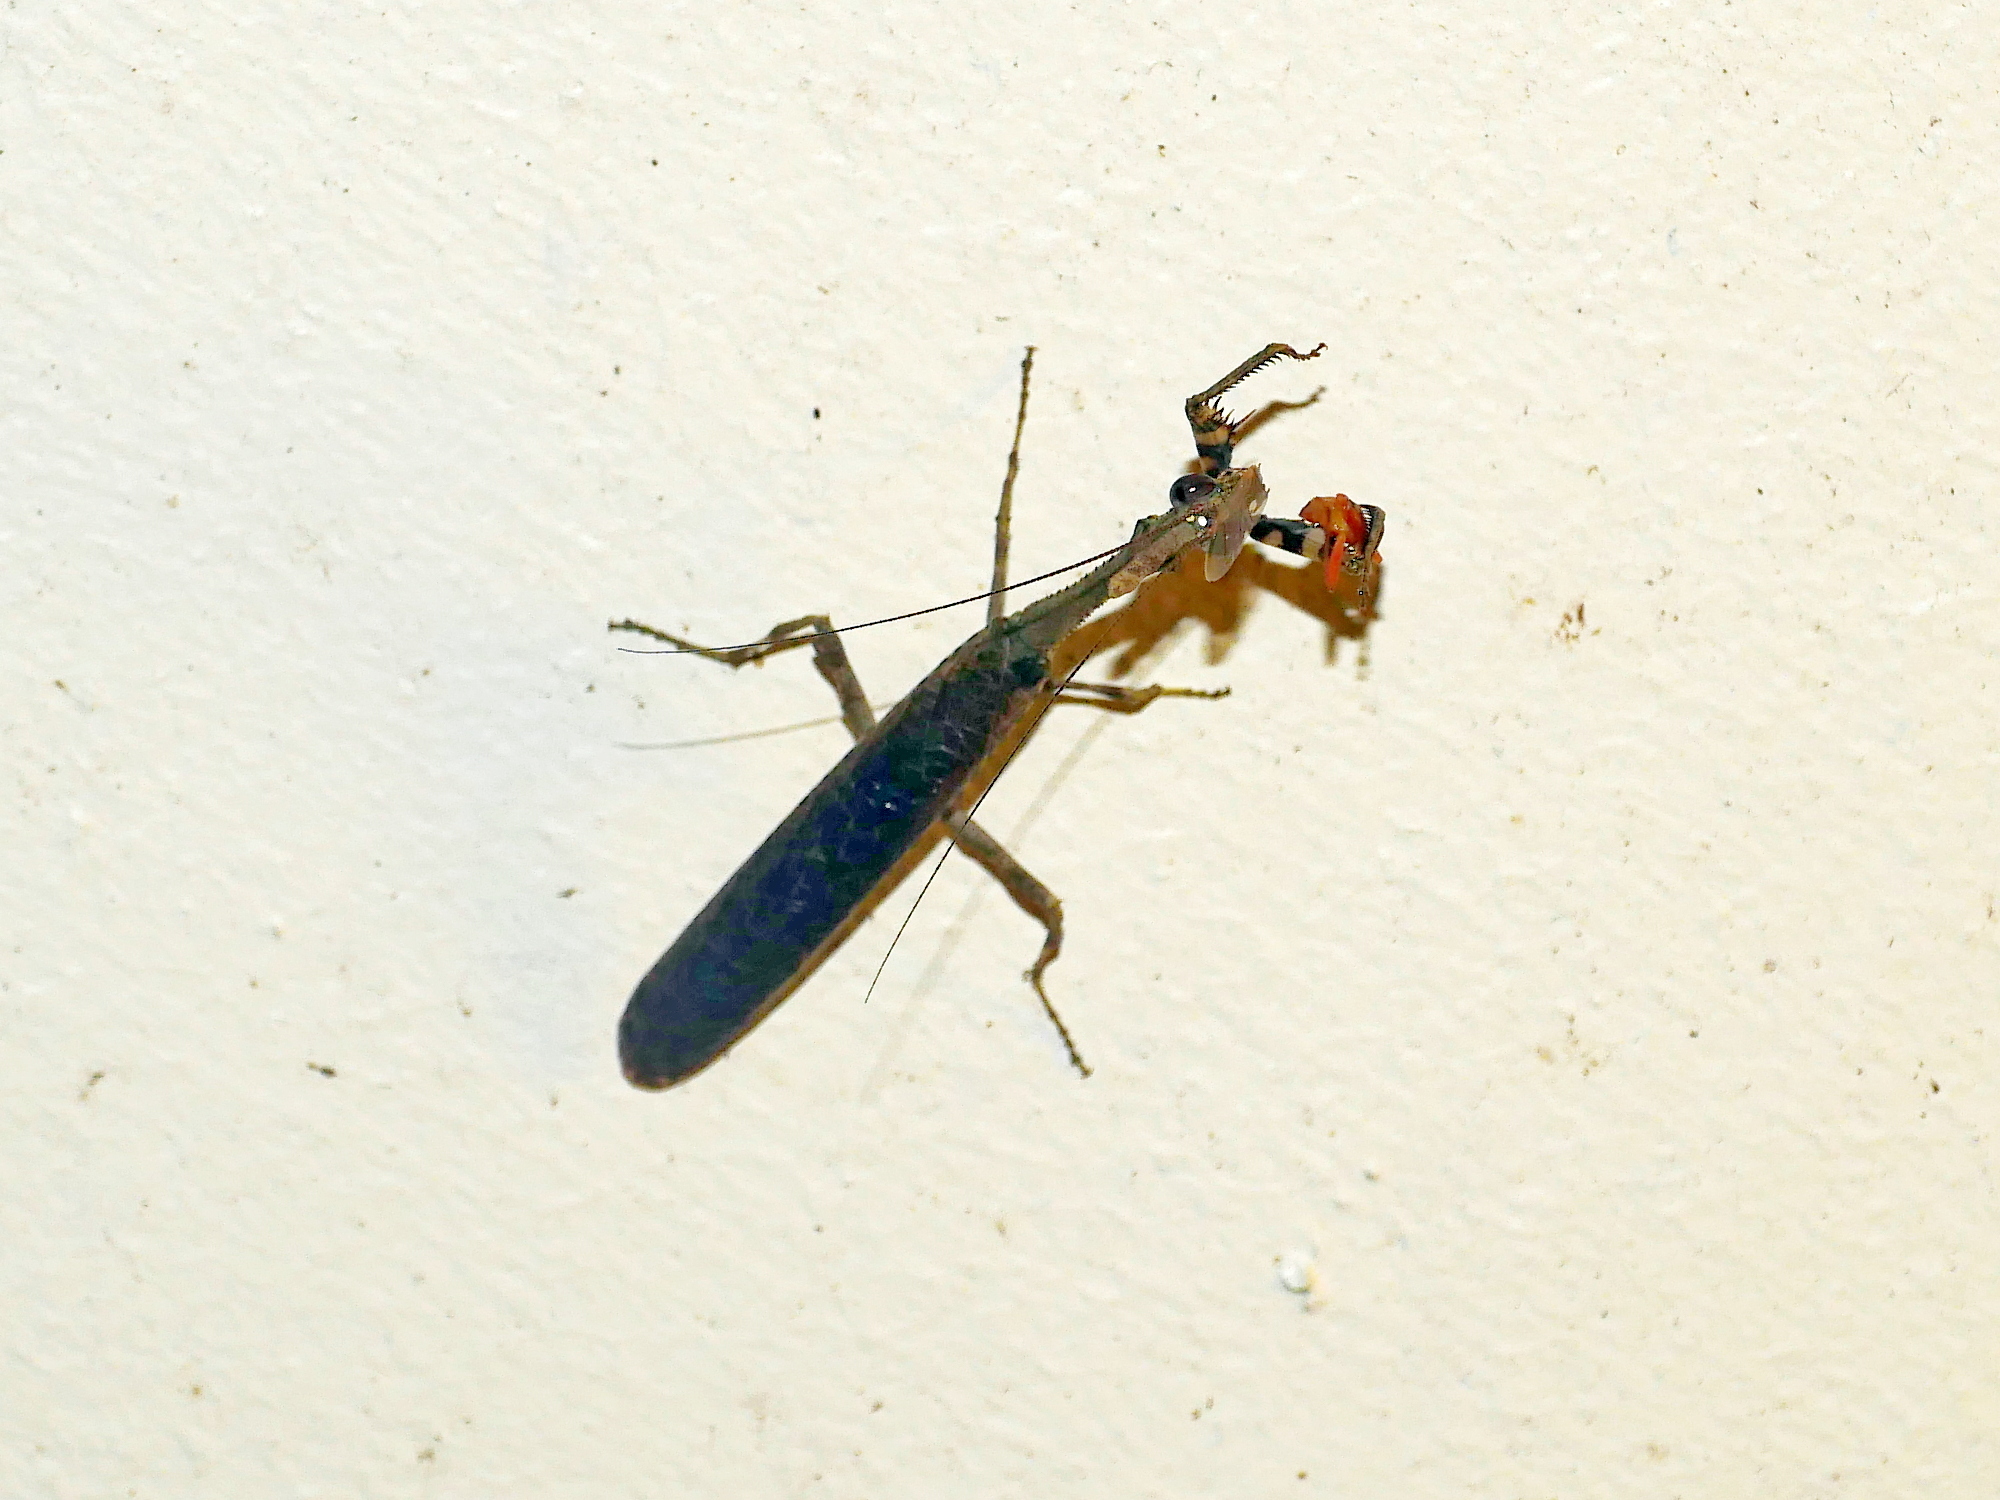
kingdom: Animalia
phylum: Arthropoda
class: Insecta
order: Mantodea
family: Hymenopodidae
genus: Phyllothelys
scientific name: Phyllothelys werneri
